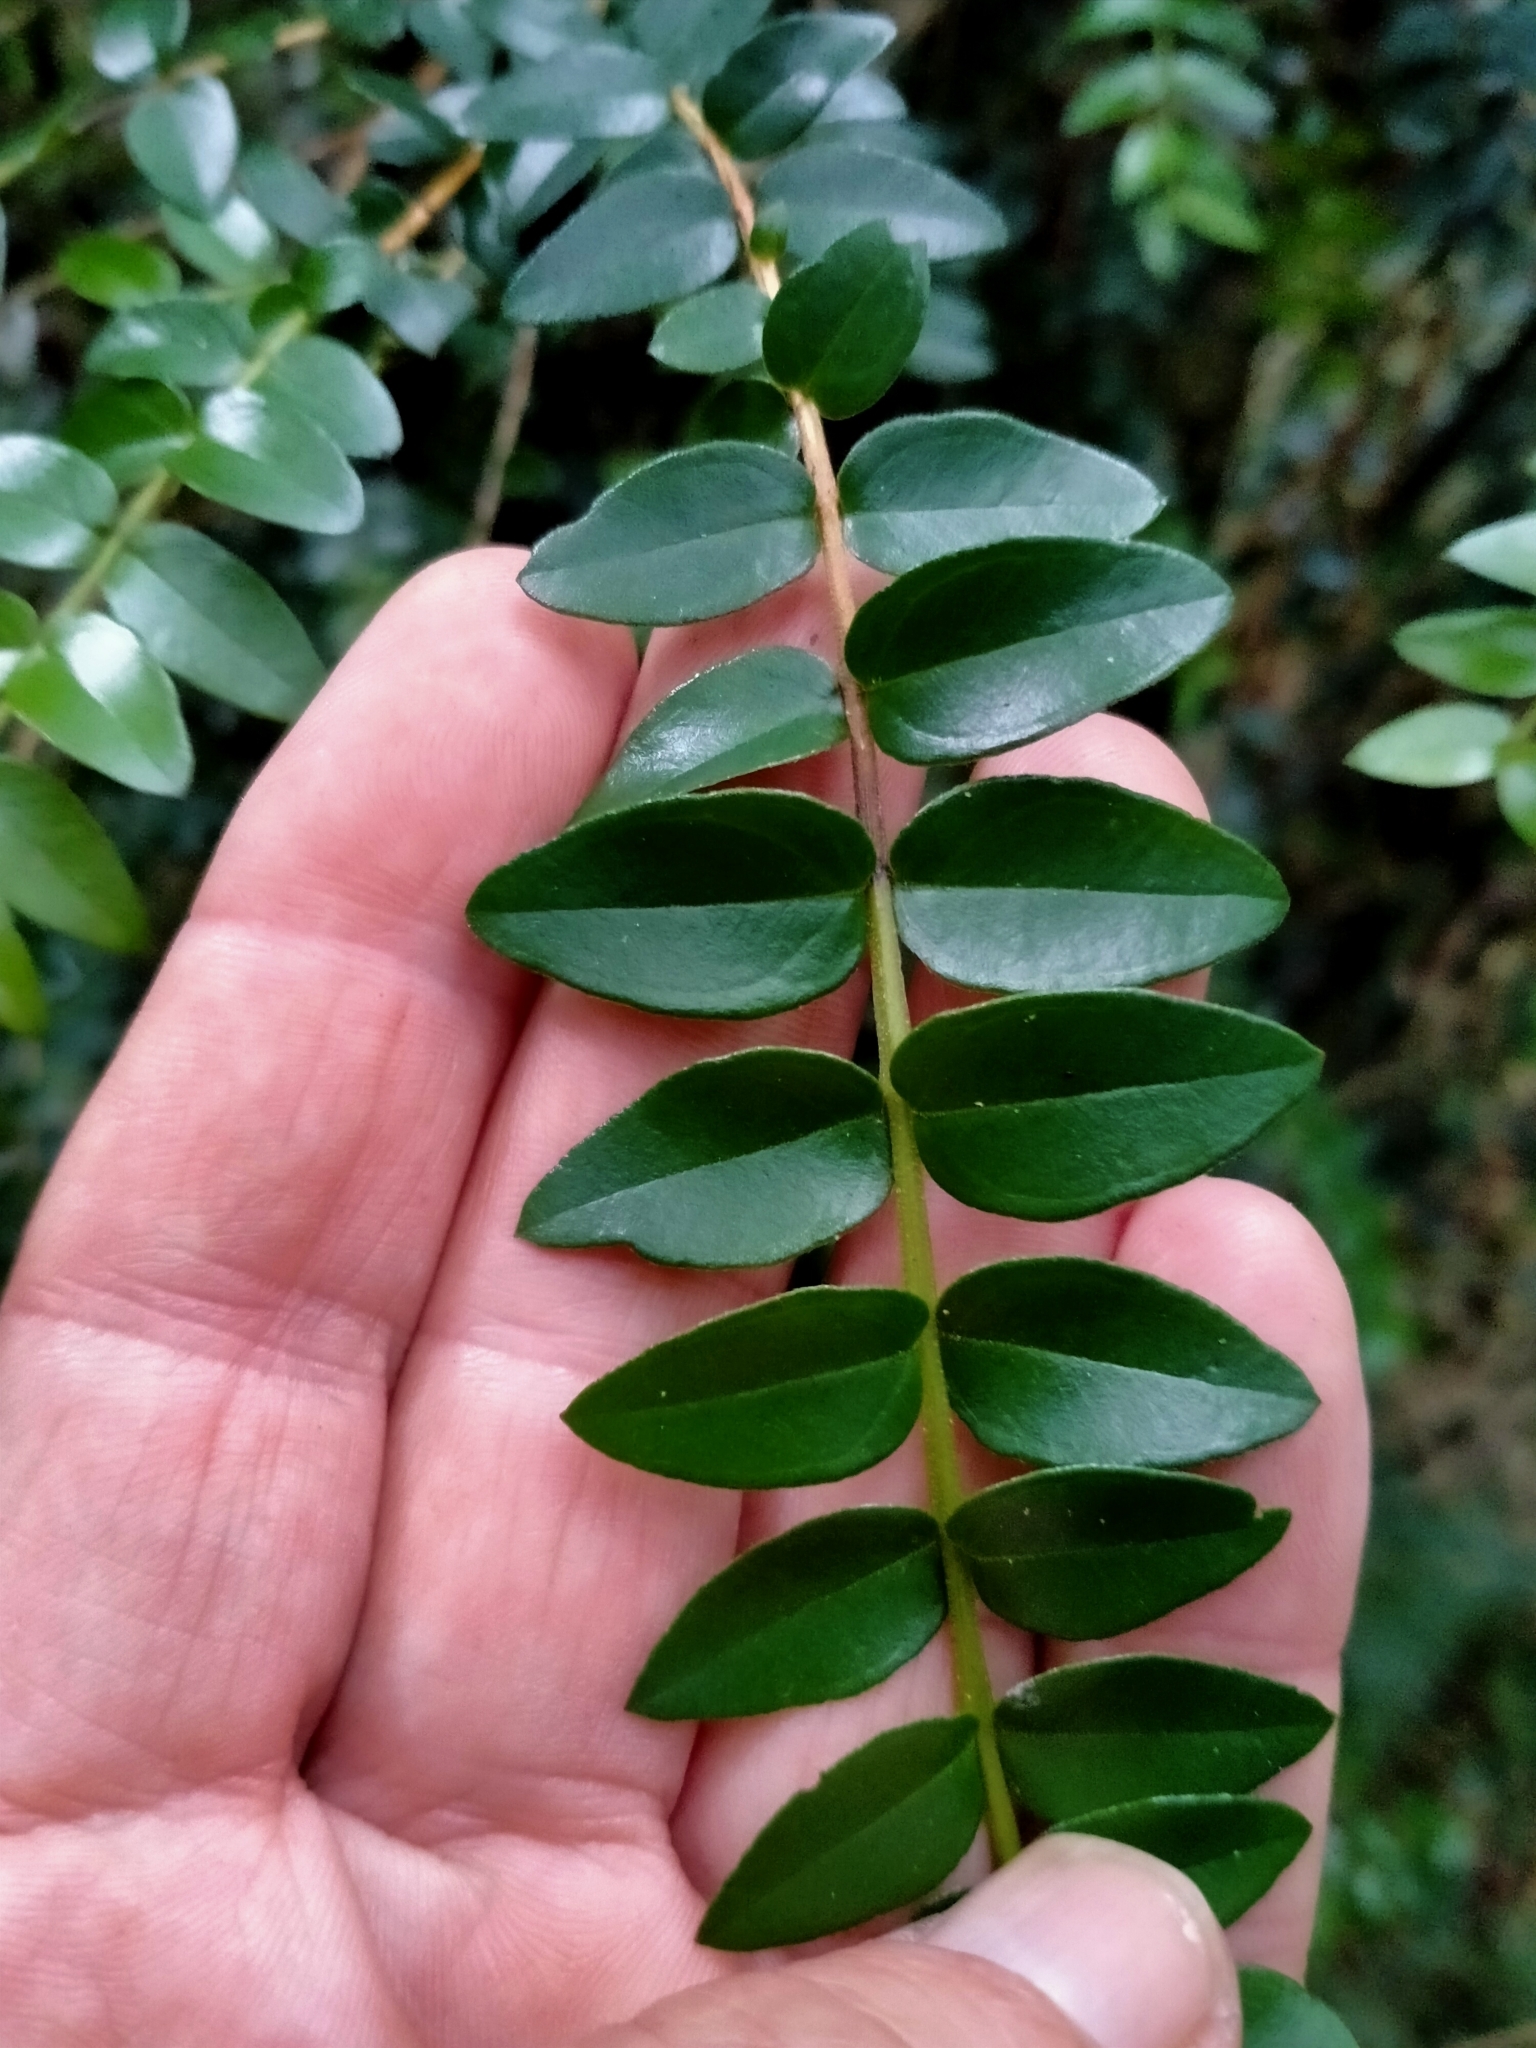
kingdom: Plantae
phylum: Tracheophyta
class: Magnoliopsida
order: Myrtales
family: Myrtaceae
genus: Metrosideros
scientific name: Metrosideros diffusa
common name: Small ratavine
